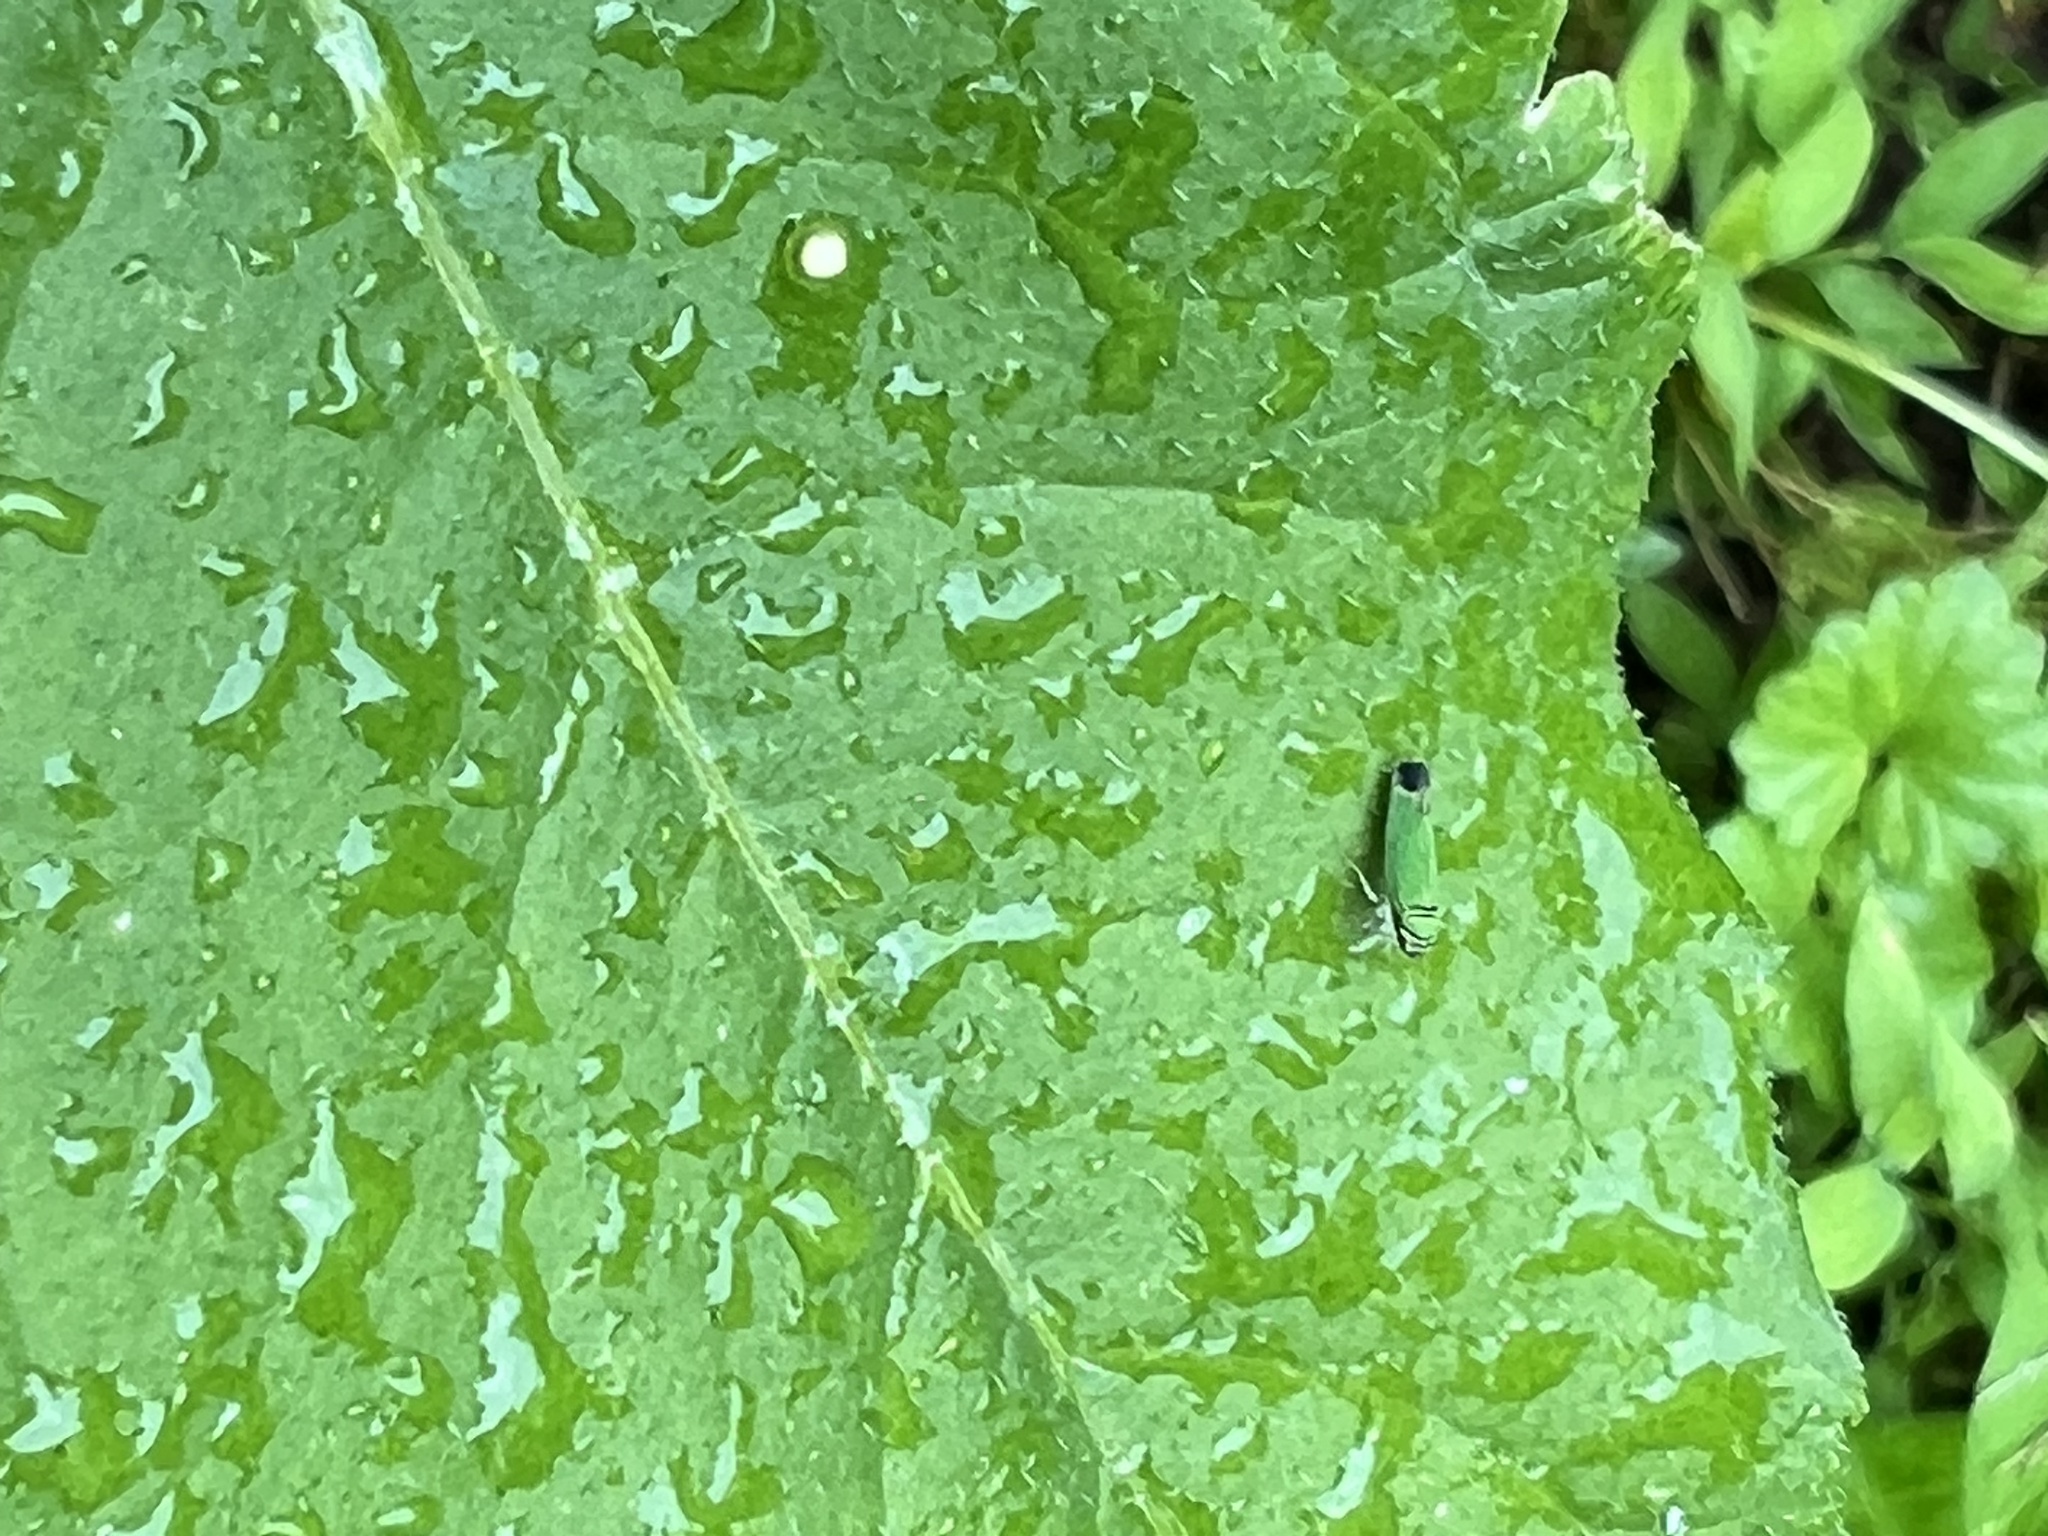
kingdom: Animalia
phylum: Arthropoda
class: Insecta
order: Hemiptera
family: Cicadellidae
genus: Tylozygus
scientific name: Tylozygus geometricus
